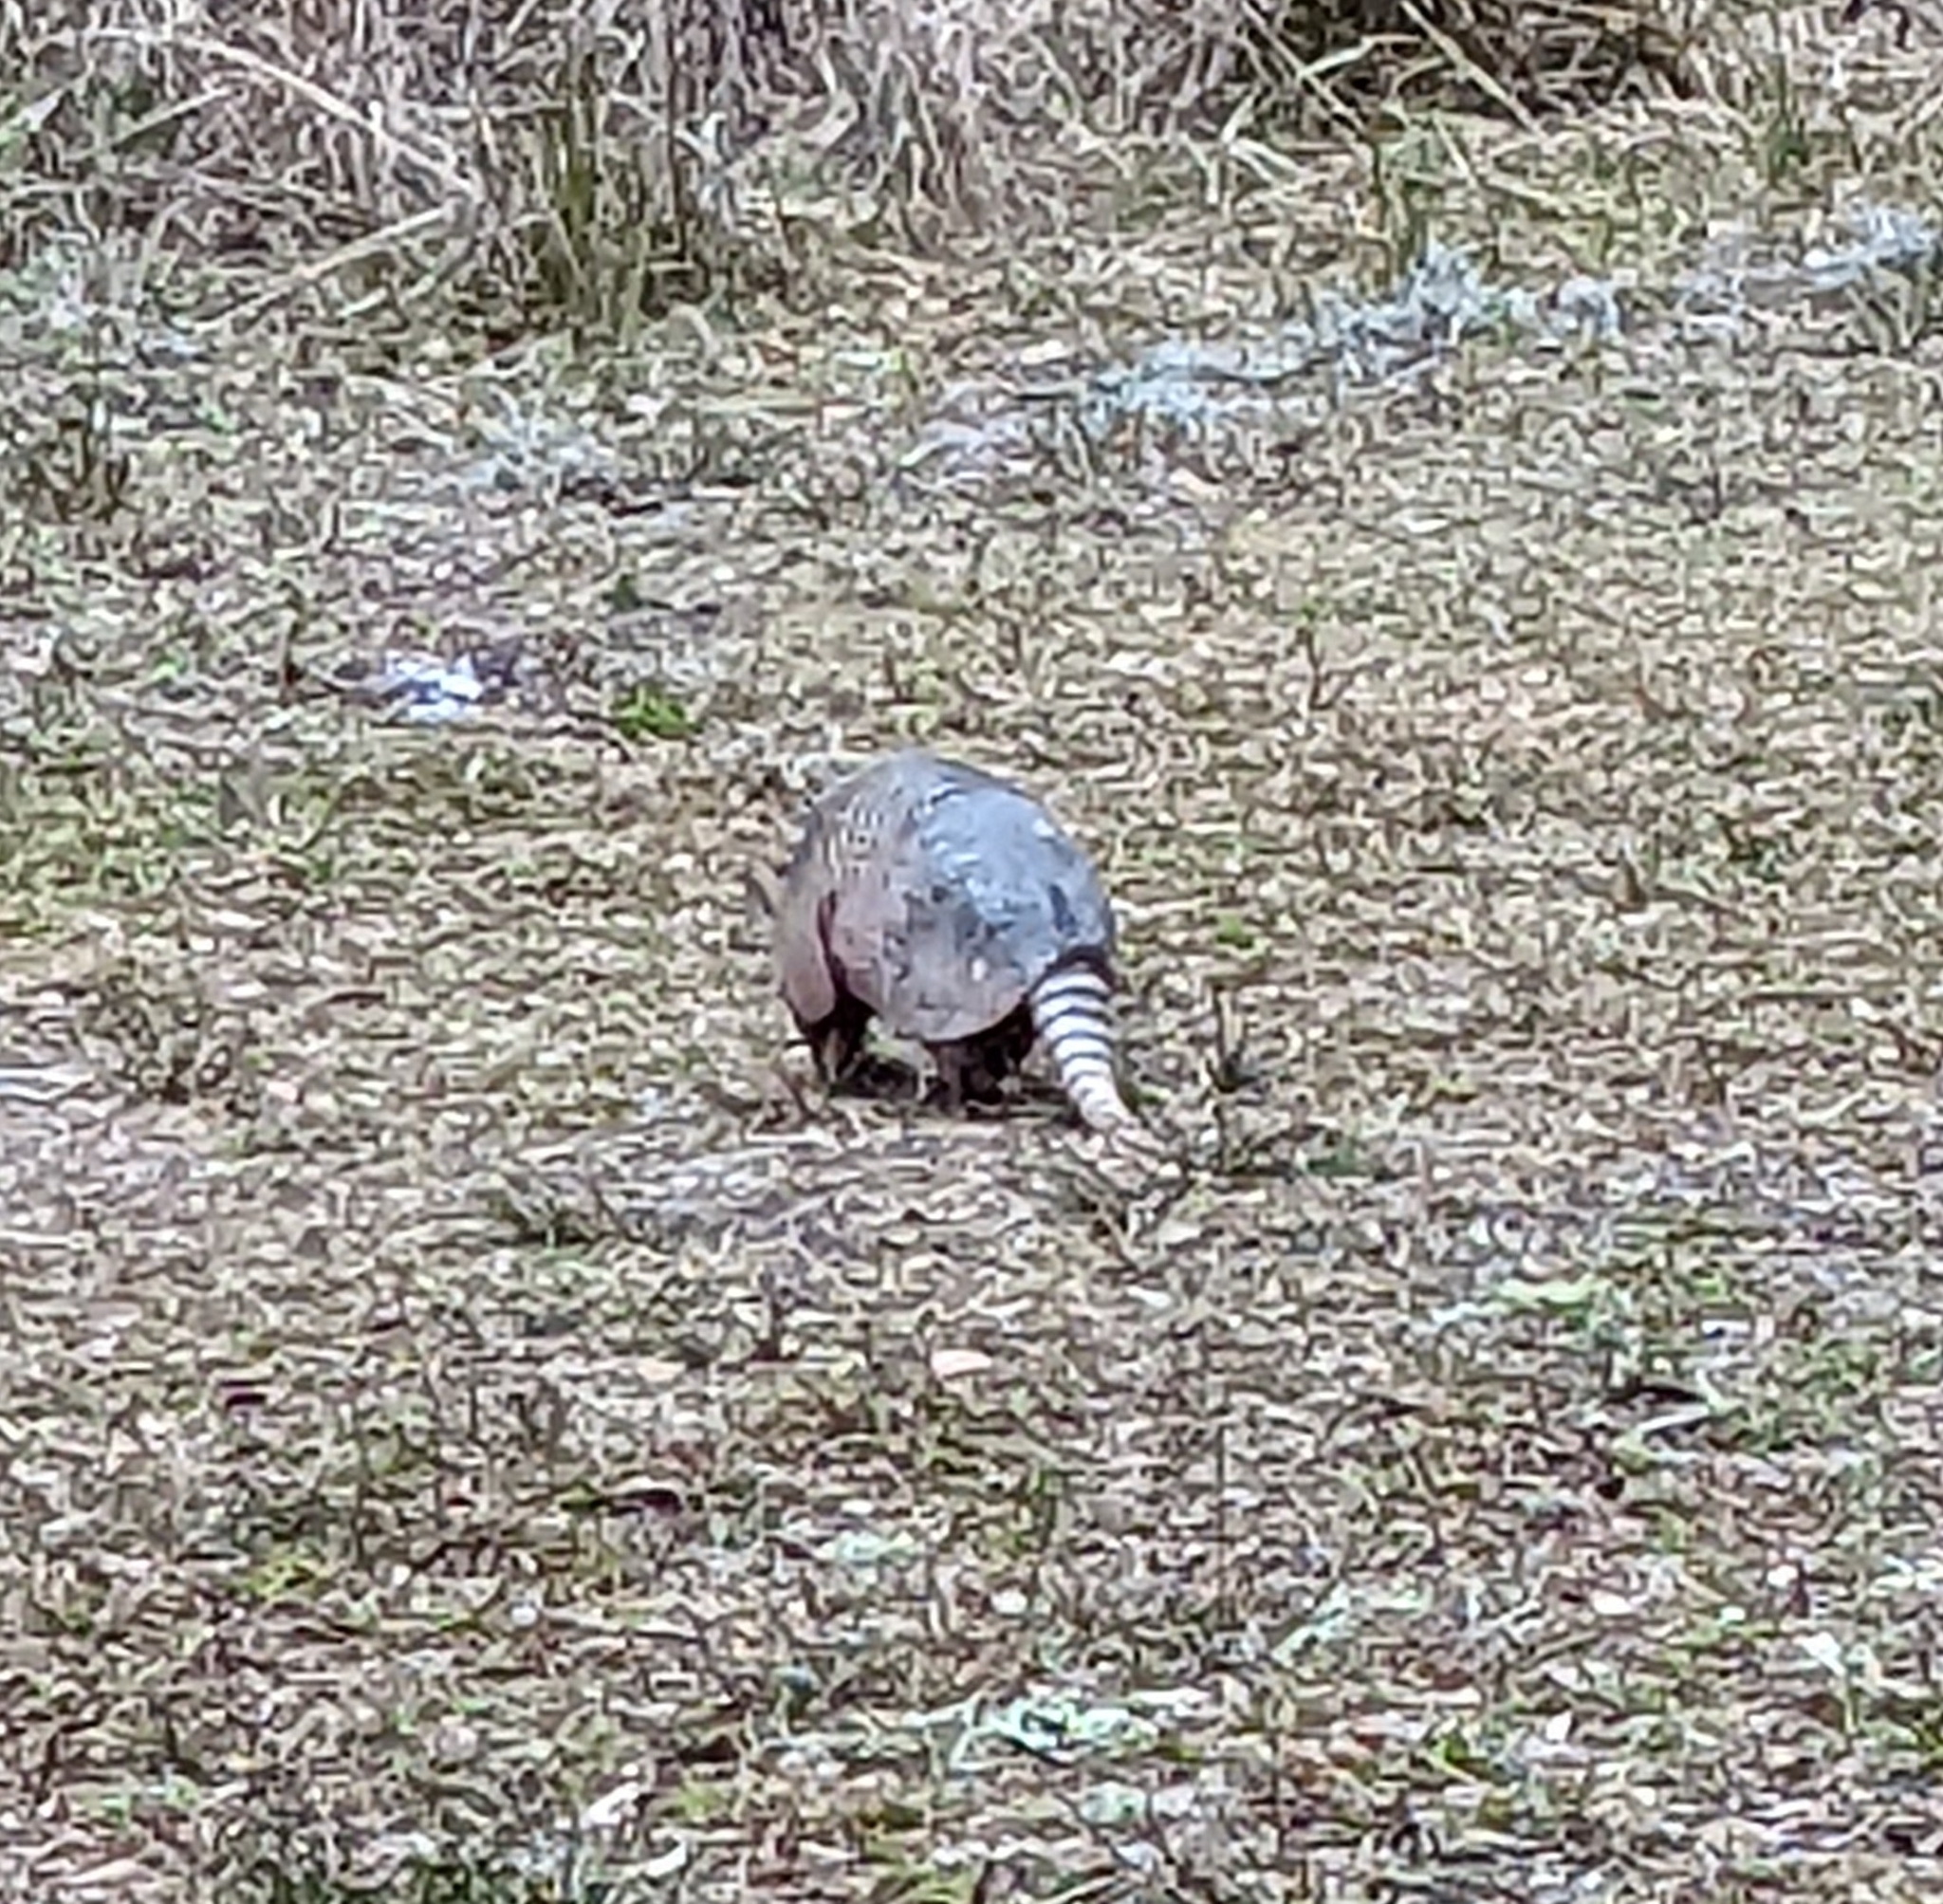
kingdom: Animalia
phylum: Chordata
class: Mammalia
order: Cingulata
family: Dasypodidae
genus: Dasypus
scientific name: Dasypus novemcinctus
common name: Nine-banded armadillo
